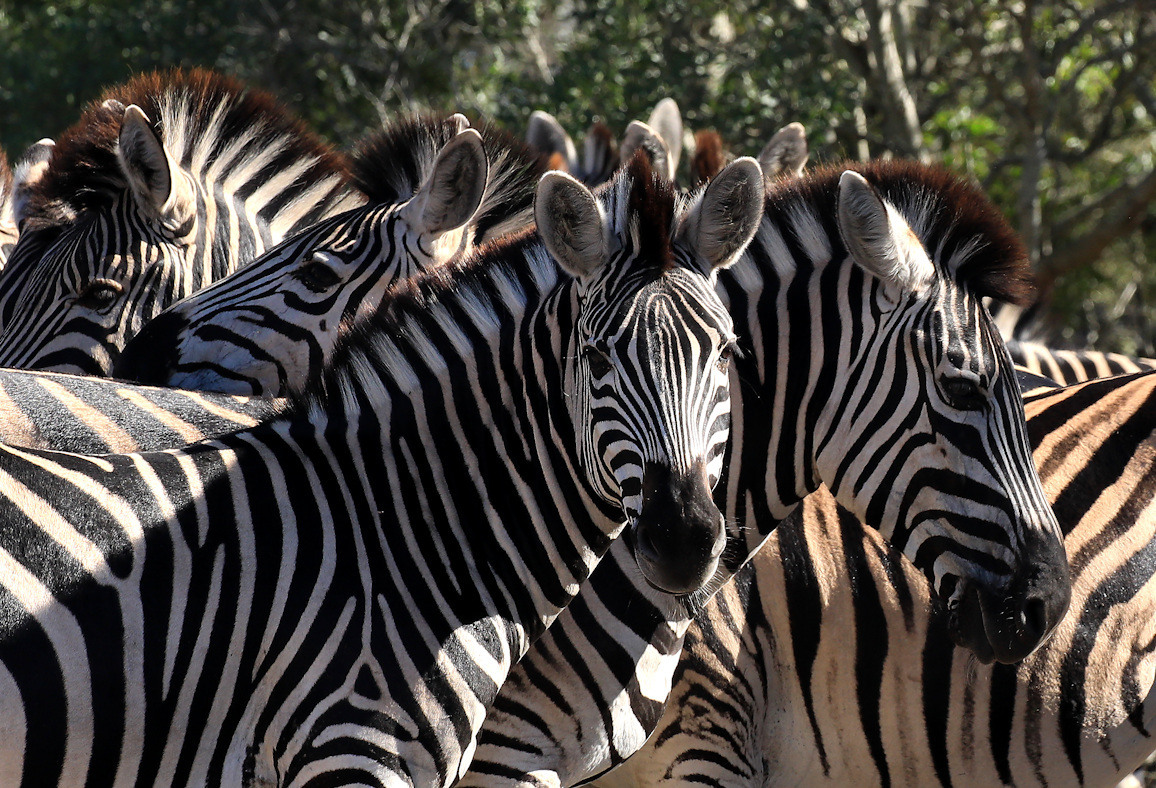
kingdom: Animalia
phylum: Chordata
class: Mammalia
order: Perissodactyla
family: Equidae
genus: Equus
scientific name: Equus quagga
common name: Plains zebra
